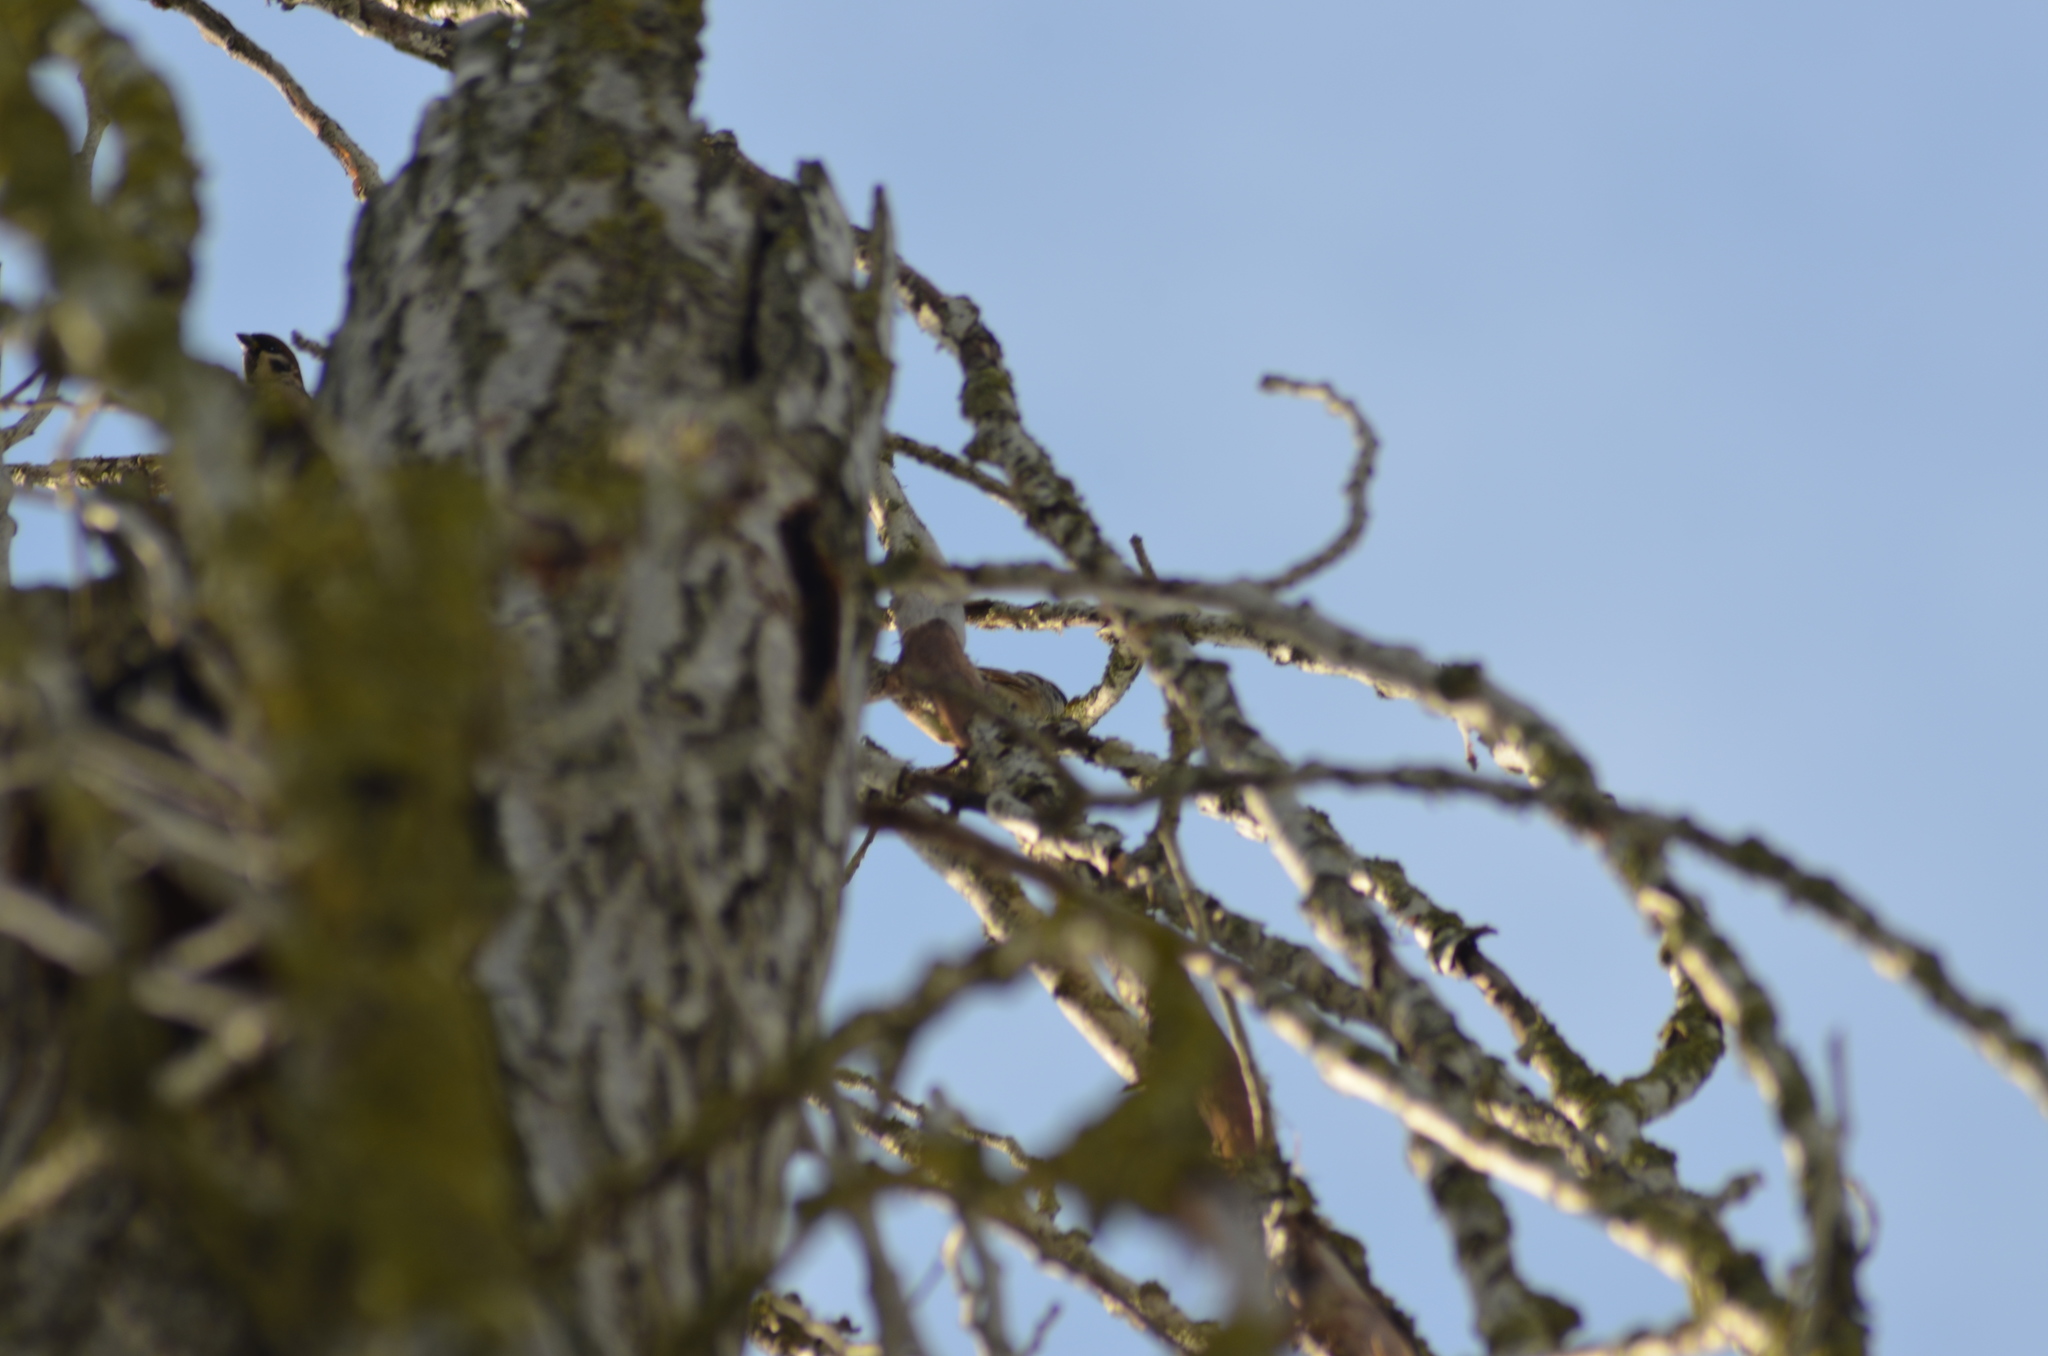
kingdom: Animalia
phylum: Chordata
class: Aves
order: Passeriformes
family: Passeridae
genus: Passer
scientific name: Passer montanus
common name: Eurasian tree sparrow
